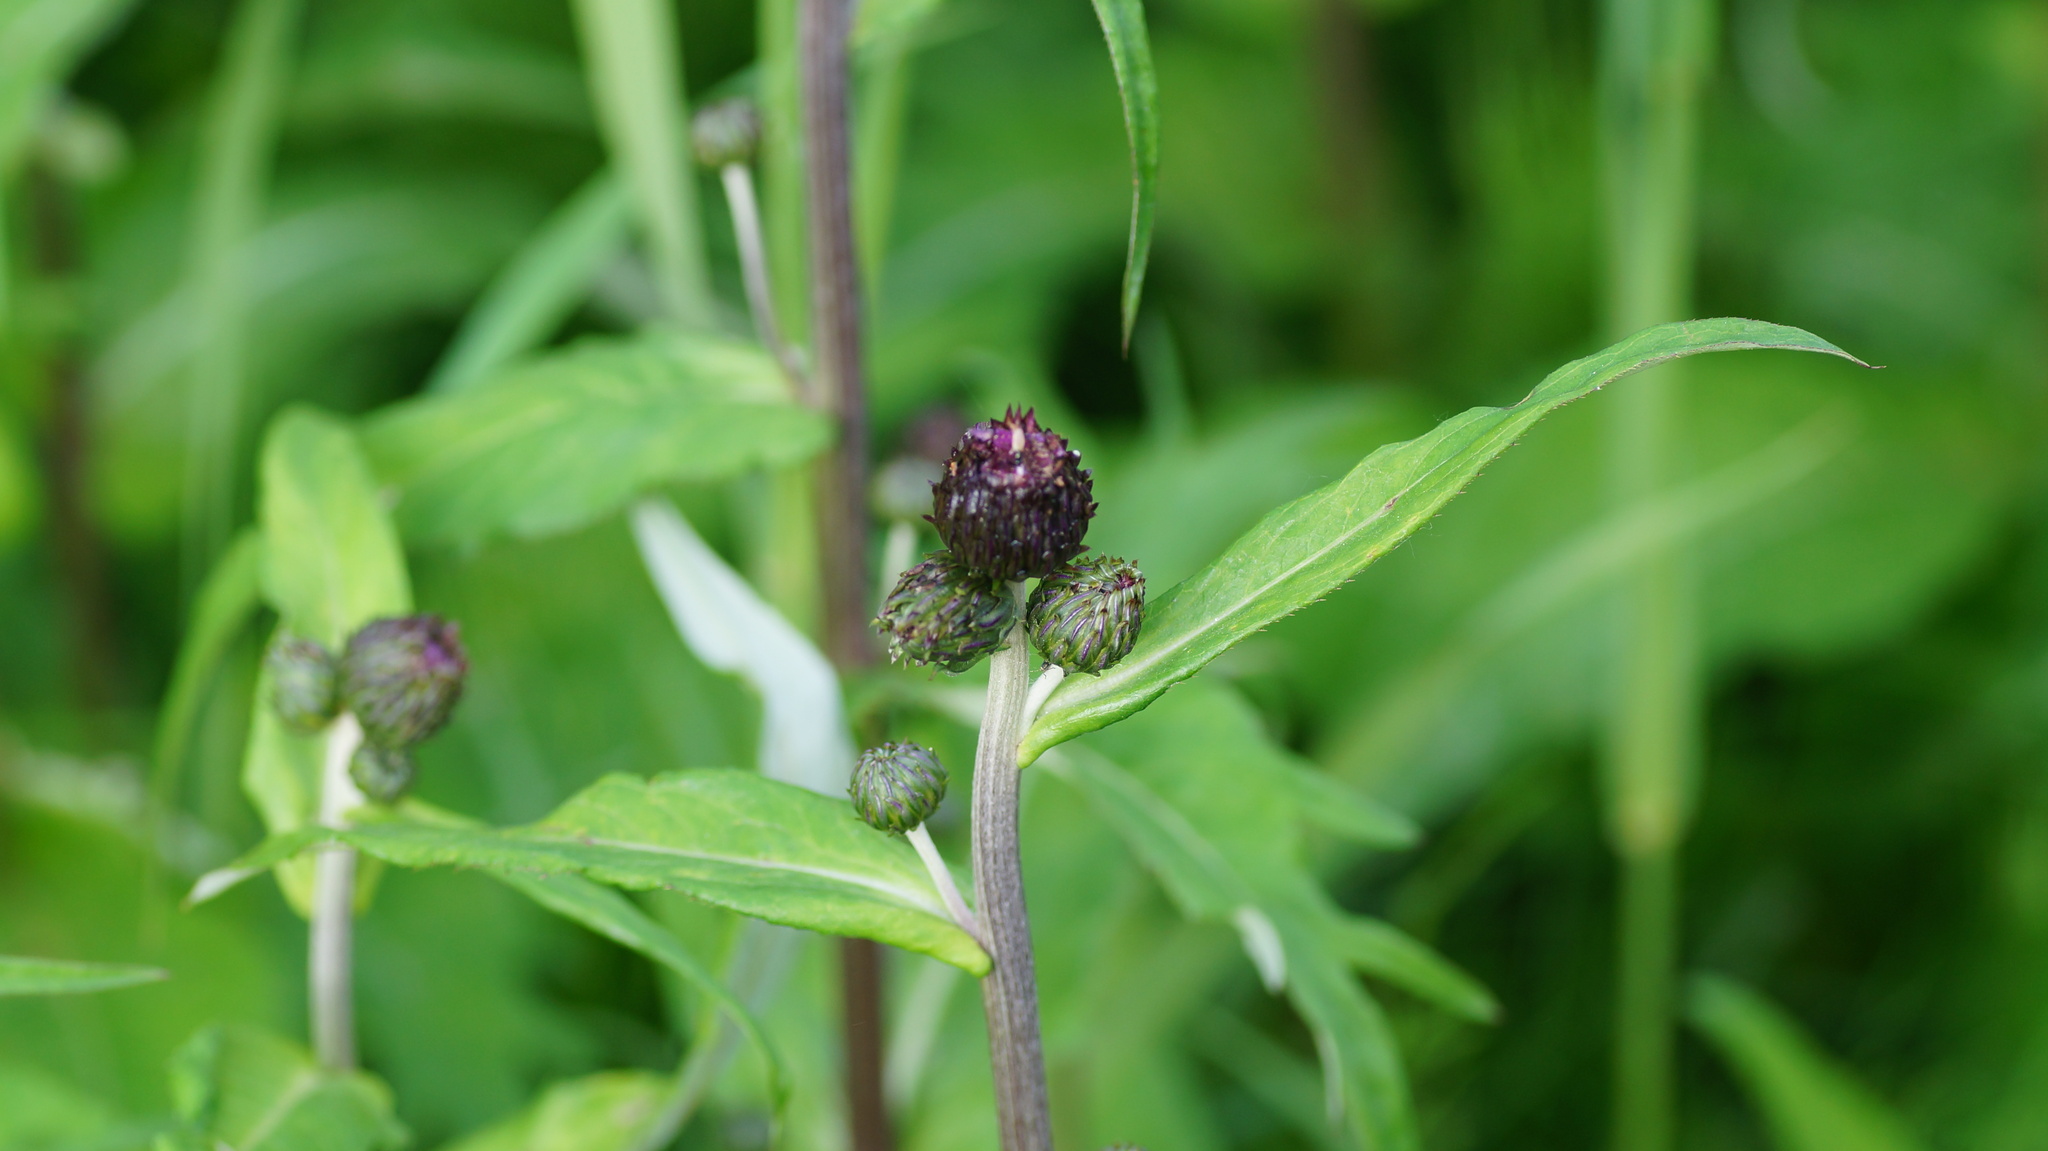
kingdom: Plantae
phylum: Tracheophyta
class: Magnoliopsida
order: Asterales
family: Asteraceae
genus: Cirsium
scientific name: Cirsium heterophyllum
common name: Melancholy thistle
